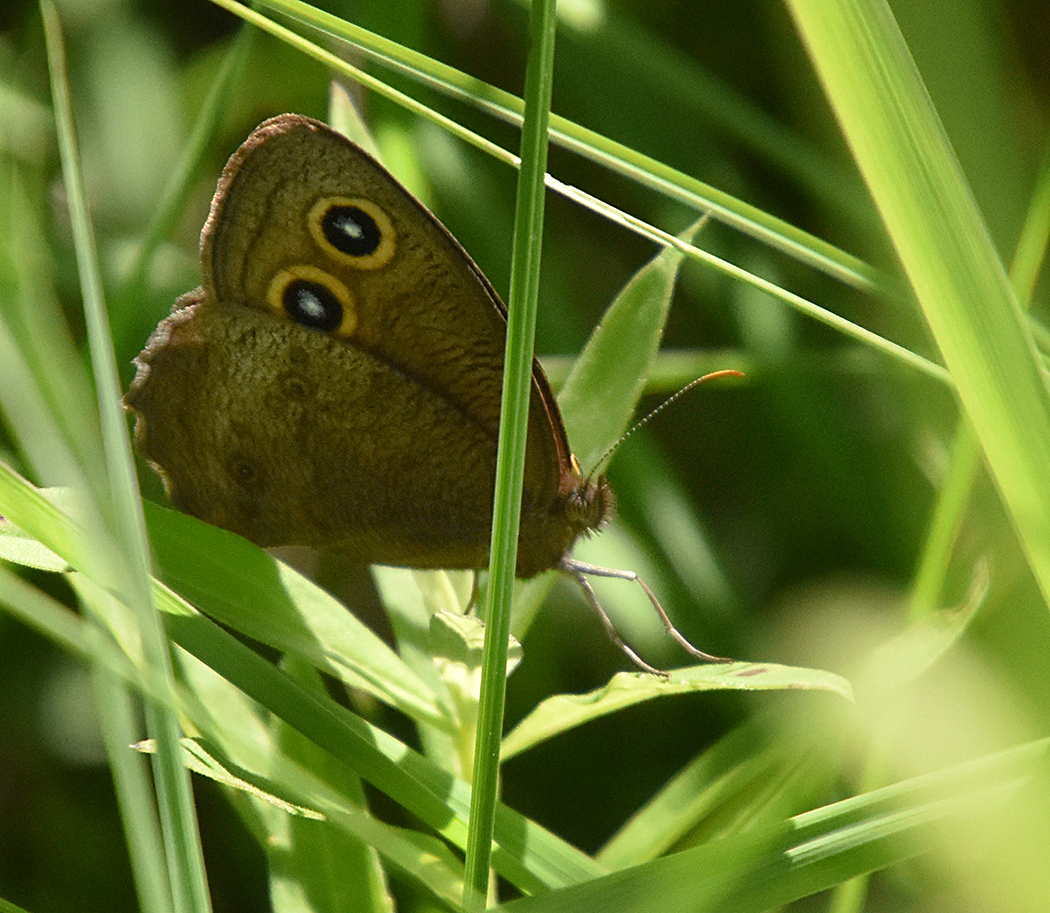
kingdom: Animalia
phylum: Arthropoda
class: Insecta
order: Lepidoptera
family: Nymphalidae
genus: Cercyonis
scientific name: Cercyonis pegala
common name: Common wood-nymph
